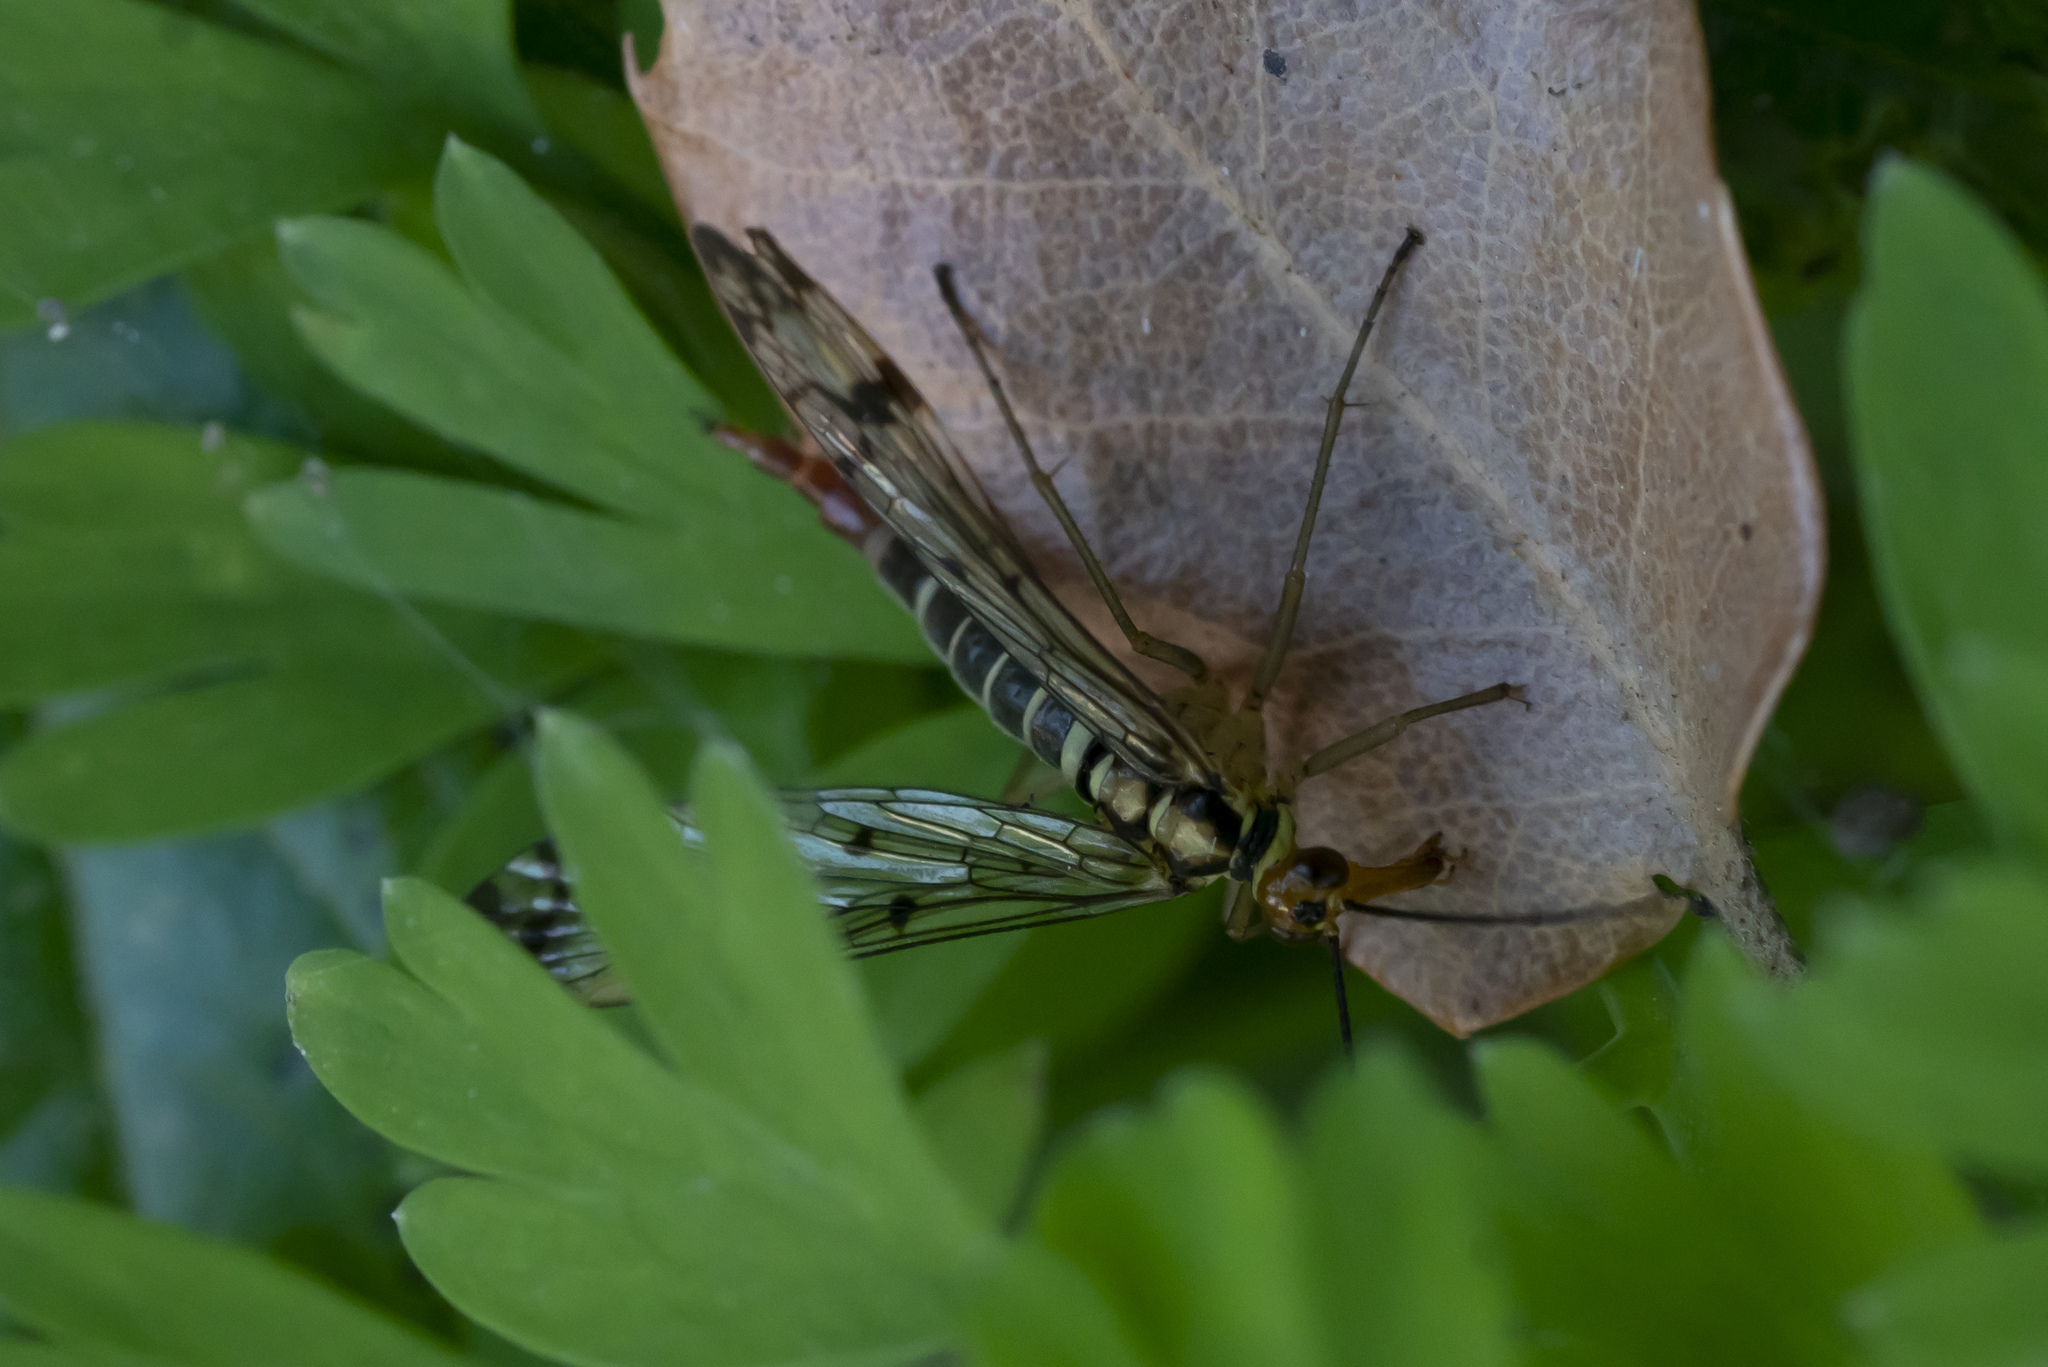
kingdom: Animalia
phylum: Arthropoda
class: Insecta
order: Mecoptera
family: Panorpidae
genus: Panorpa
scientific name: Panorpa lacedaemonia
